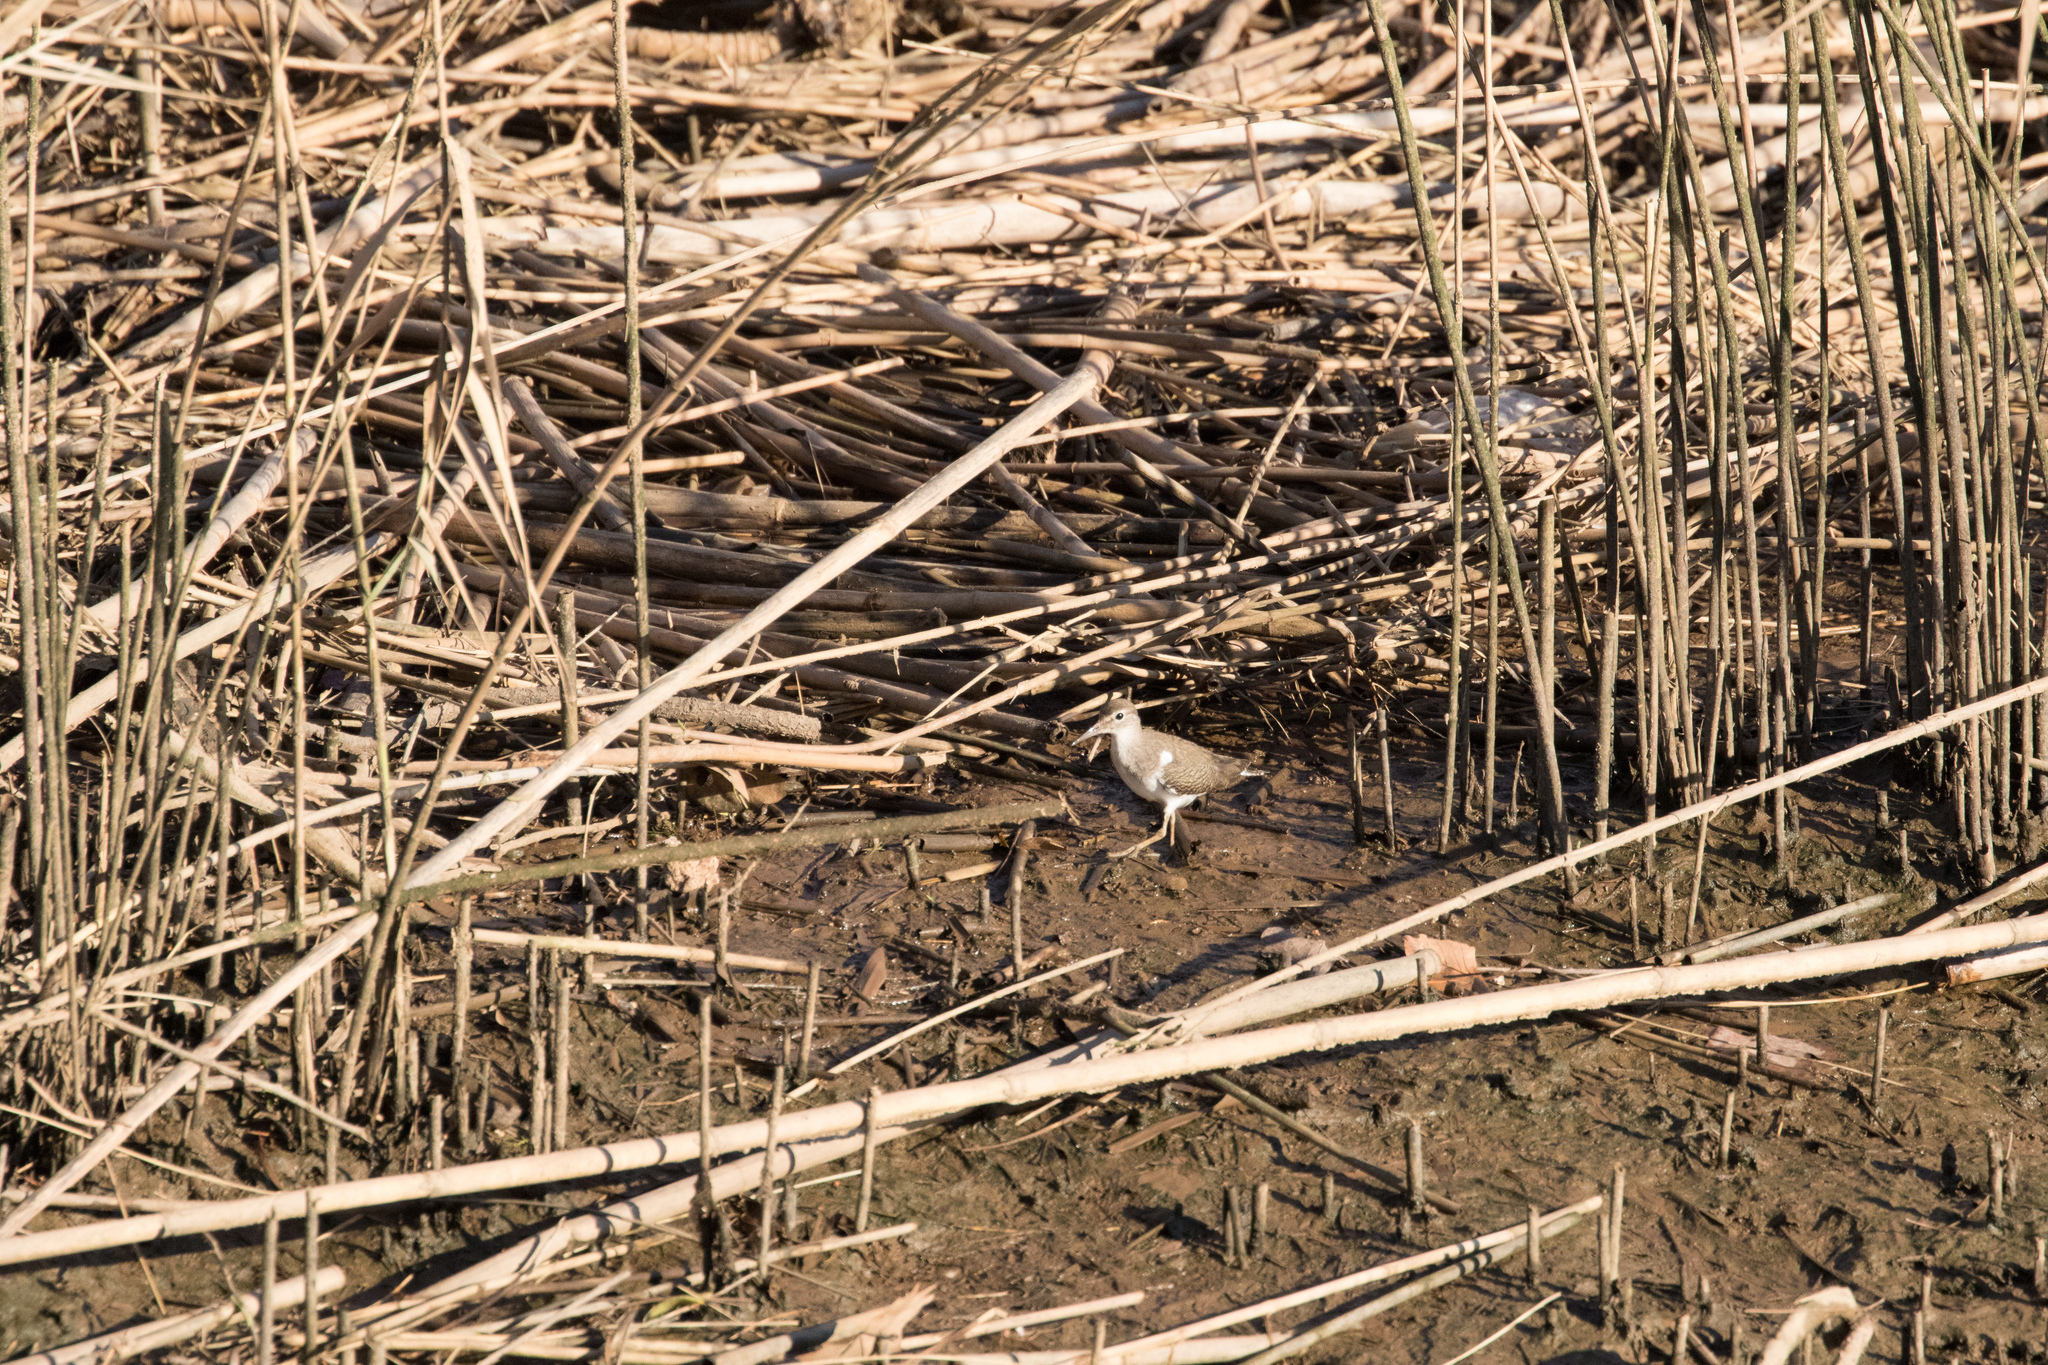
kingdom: Animalia
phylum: Chordata
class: Aves
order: Charadriiformes
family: Scolopacidae
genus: Actitis
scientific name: Actitis hypoleucos
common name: Common sandpiper
